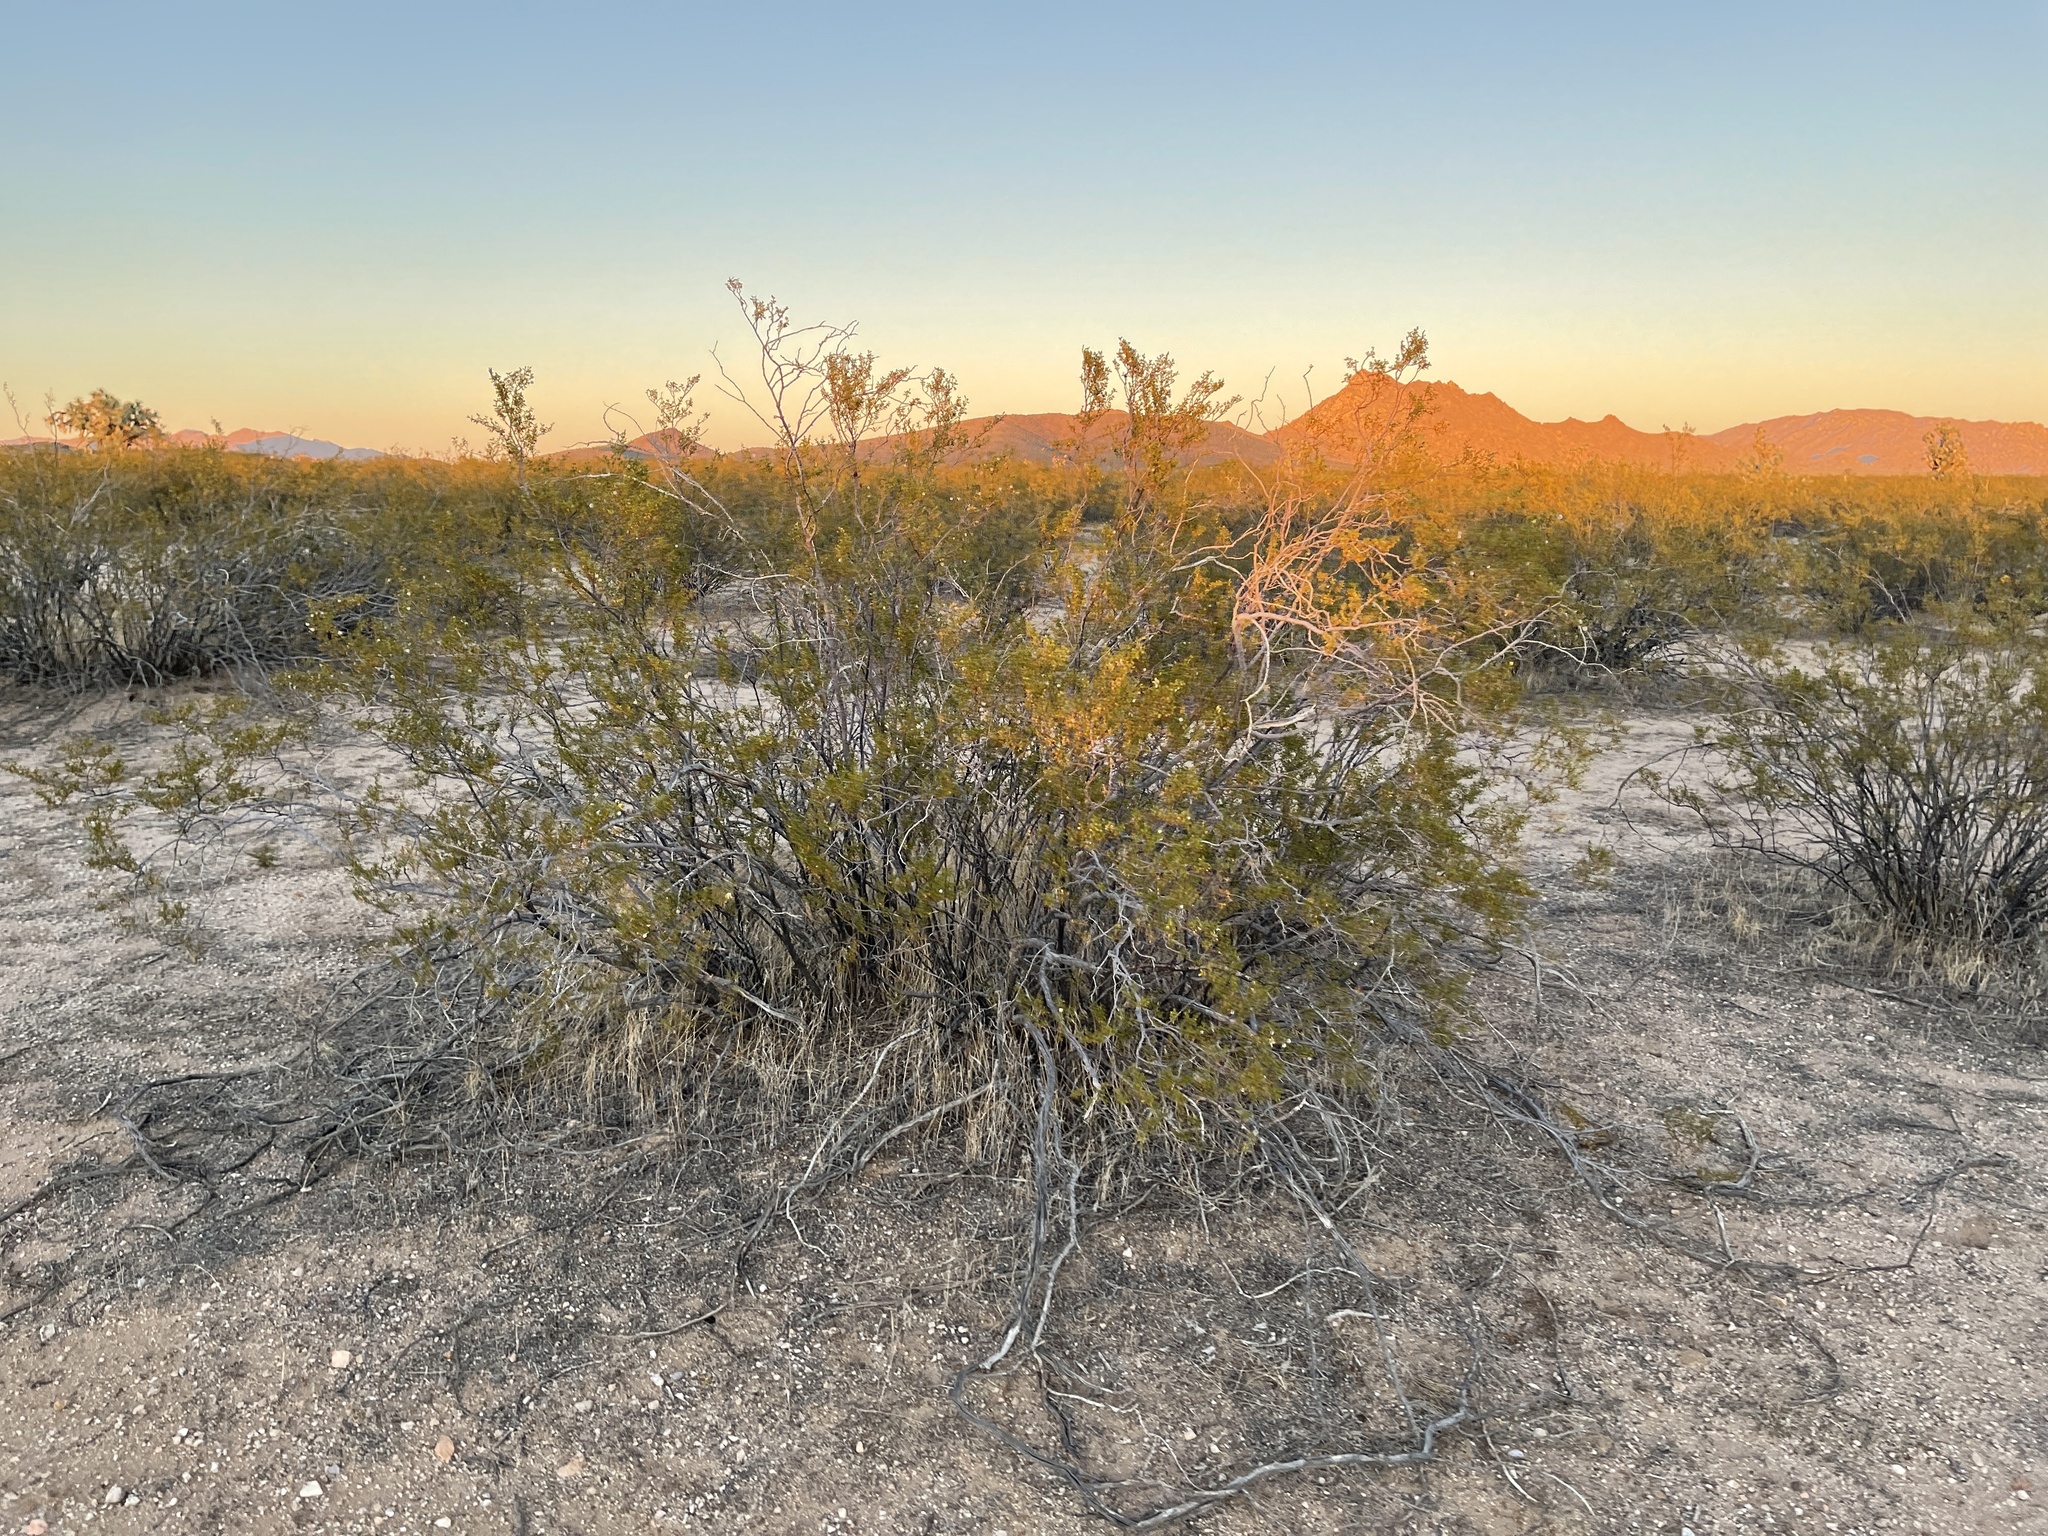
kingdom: Plantae
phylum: Tracheophyta
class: Magnoliopsida
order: Zygophyllales
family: Zygophyllaceae
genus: Larrea
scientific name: Larrea tridentata
